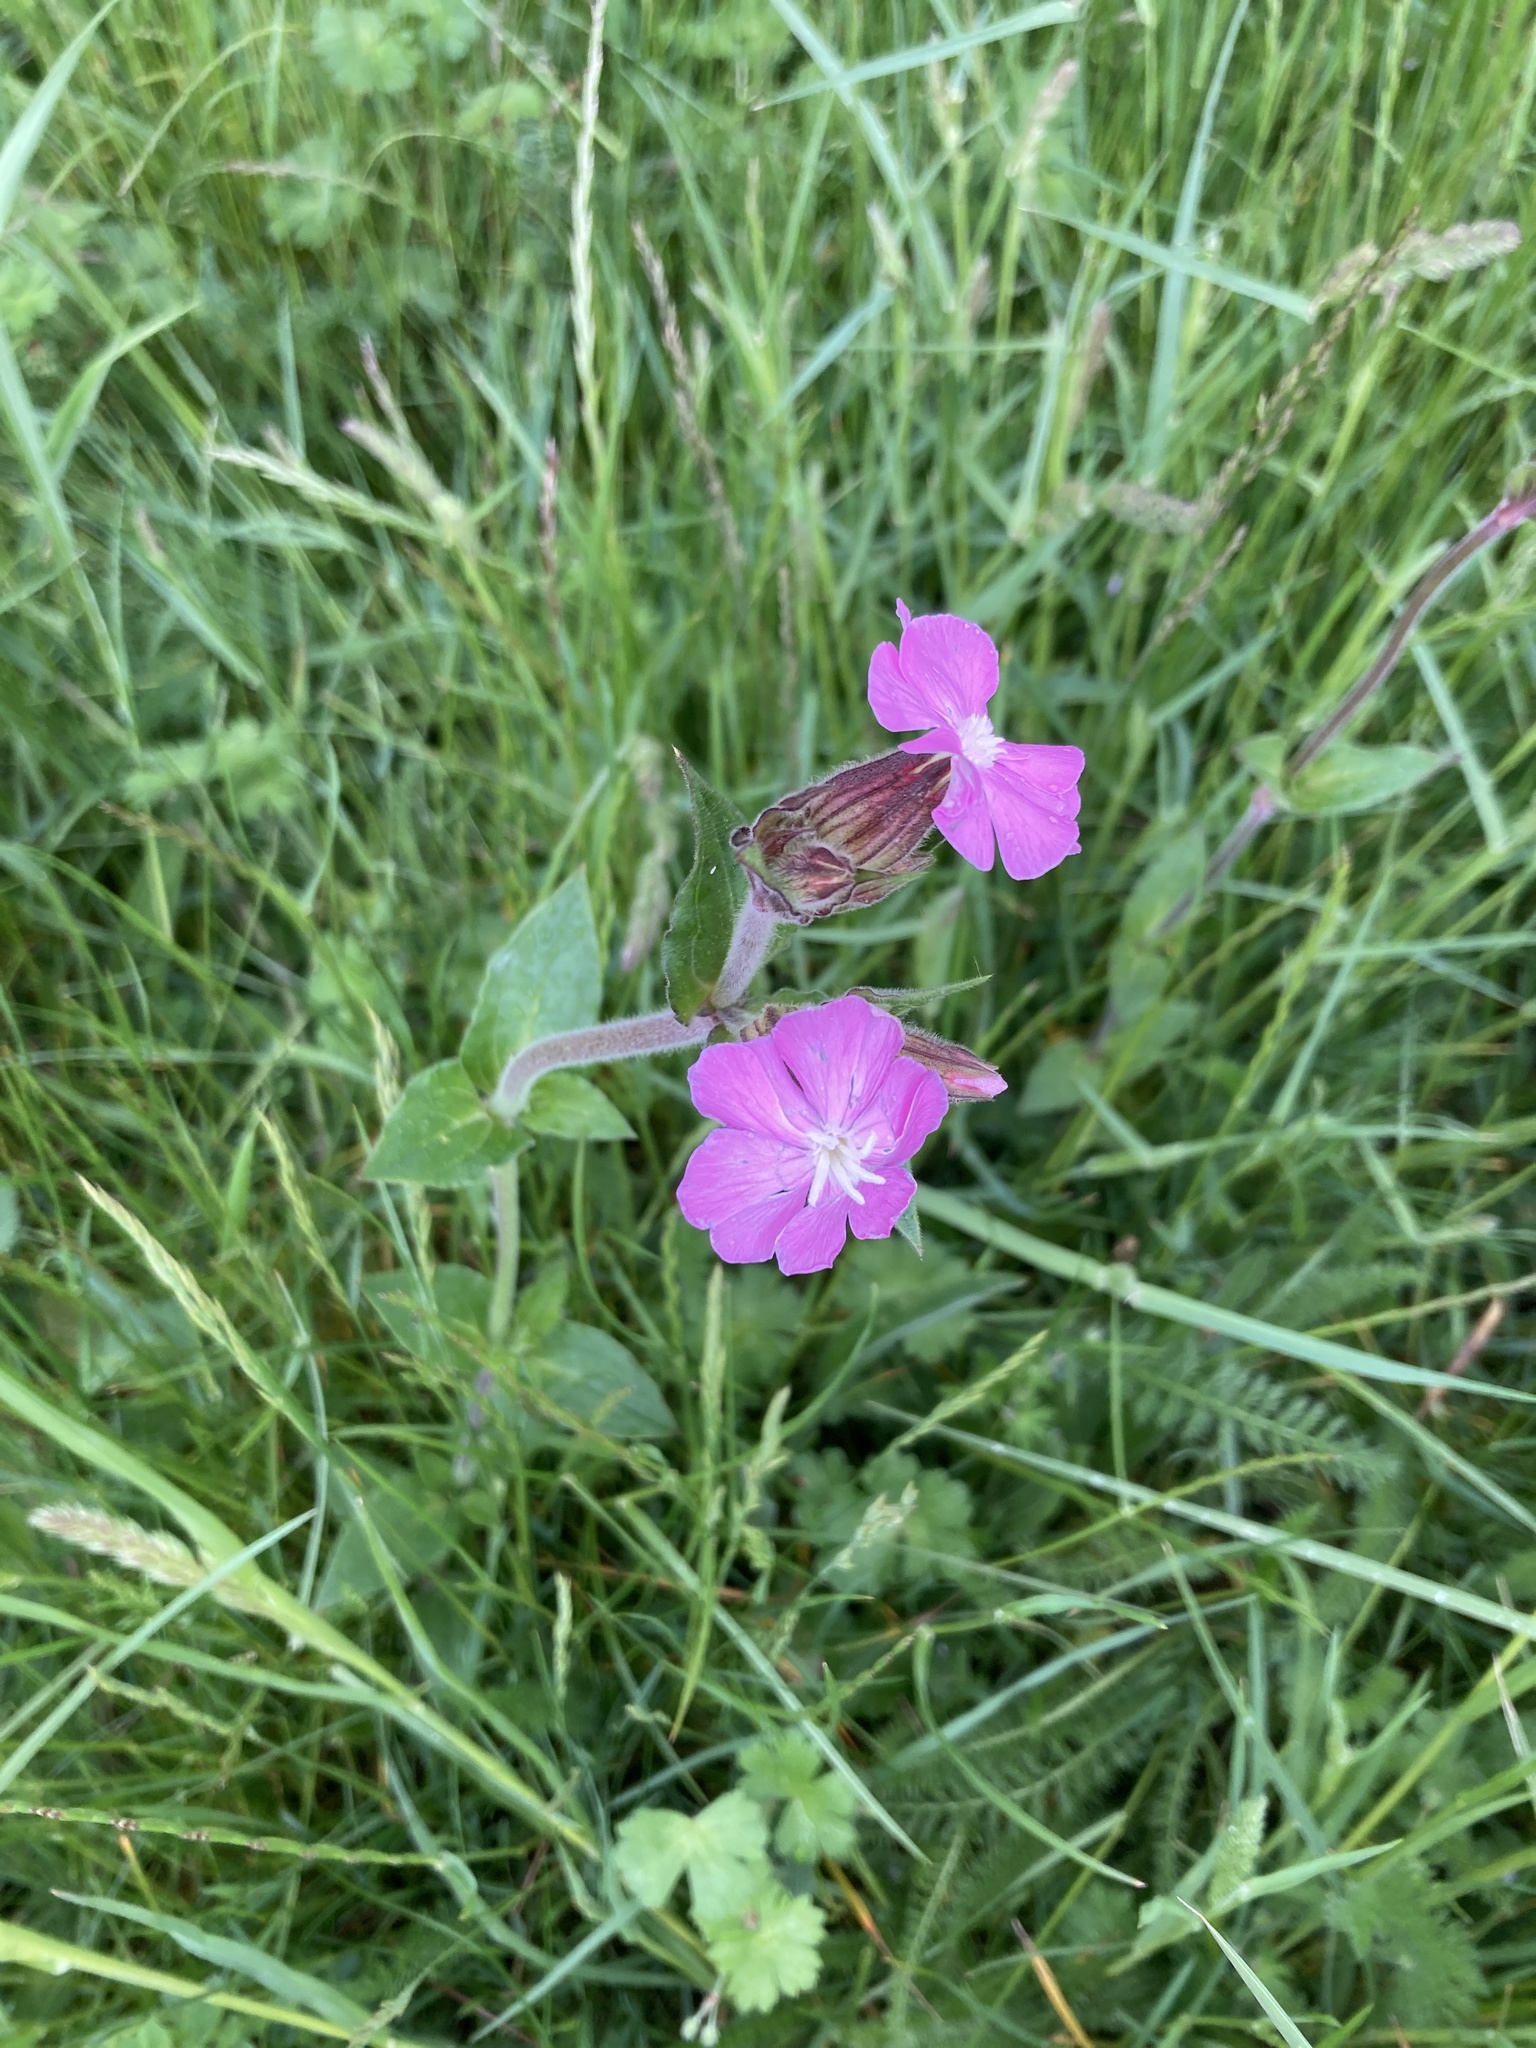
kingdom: Plantae
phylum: Tracheophyta
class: Magnoliopsida
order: Caryophyllales
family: Caryophyllaceae
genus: Silene
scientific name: Silene dioica
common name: Red campion
